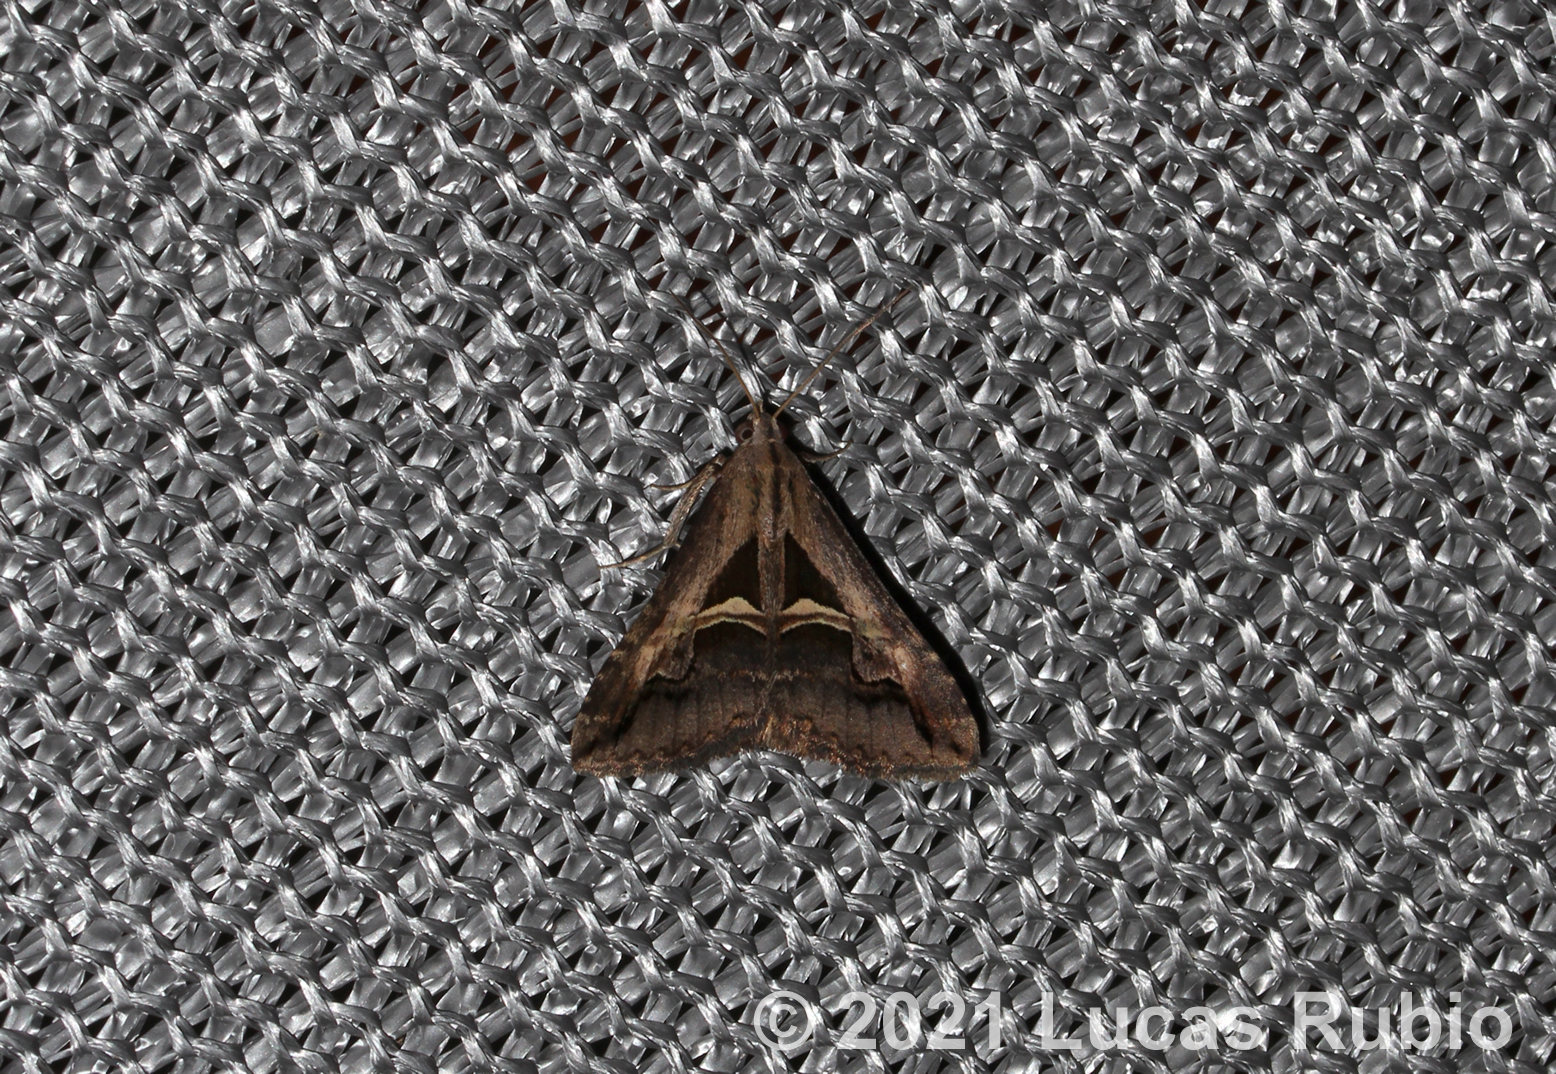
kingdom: Animalia
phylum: Arthropoda
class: Insecta
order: Lepidoptera
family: Erebidae
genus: Melipotis
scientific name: Melipotis cellaris
